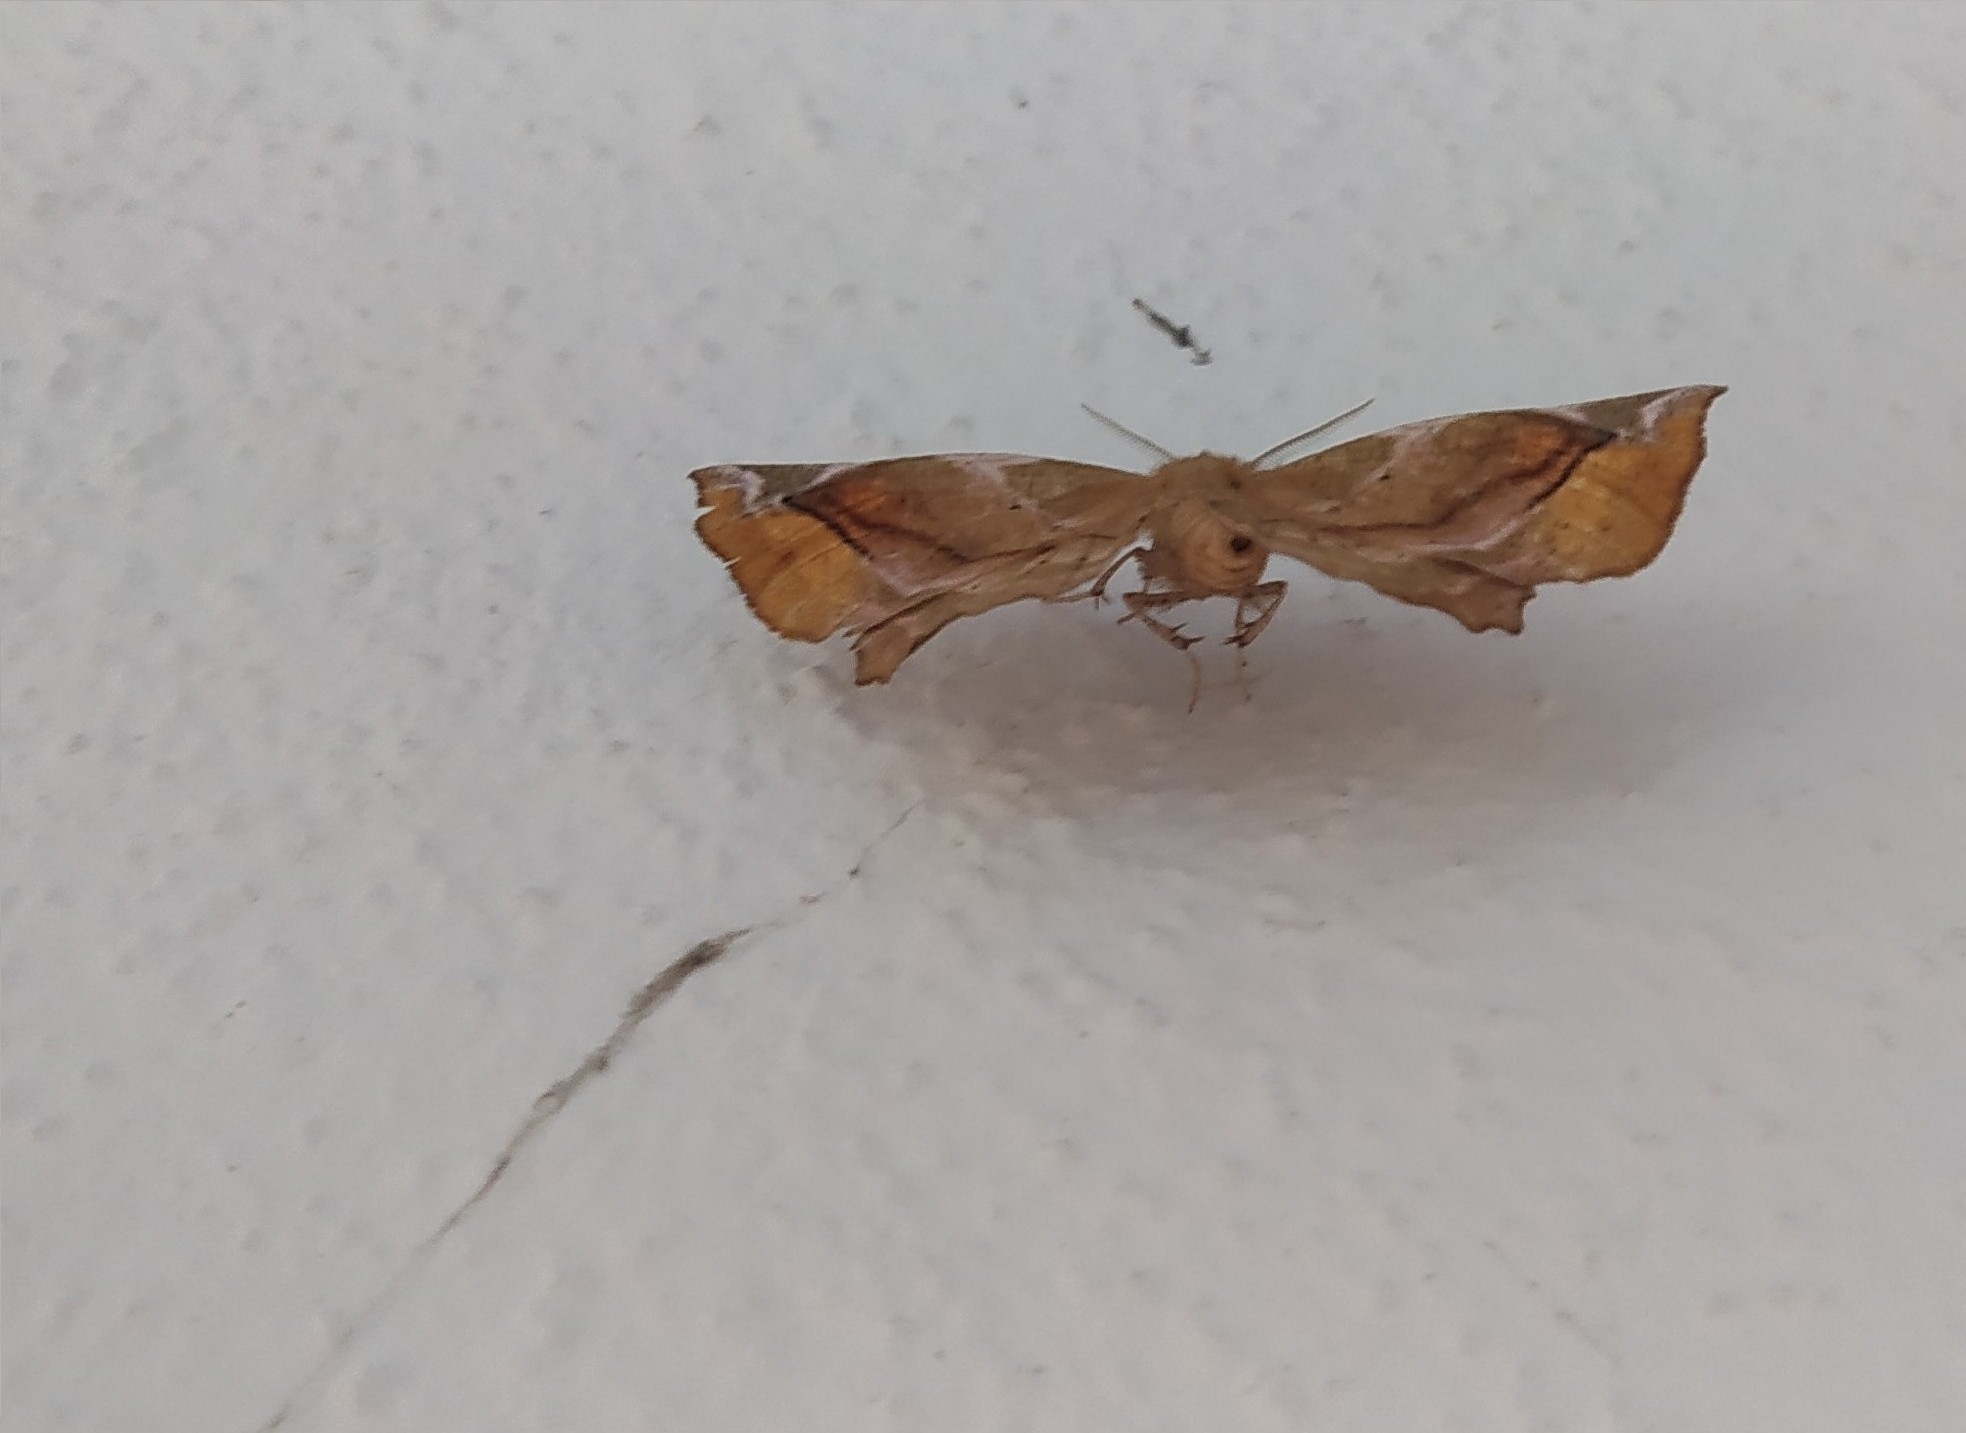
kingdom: Animalia
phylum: Arthropoda
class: Insecta
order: Lepidoptera
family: Geometridae
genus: Apeira
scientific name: Apeira syringaria
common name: Lilac beauty
